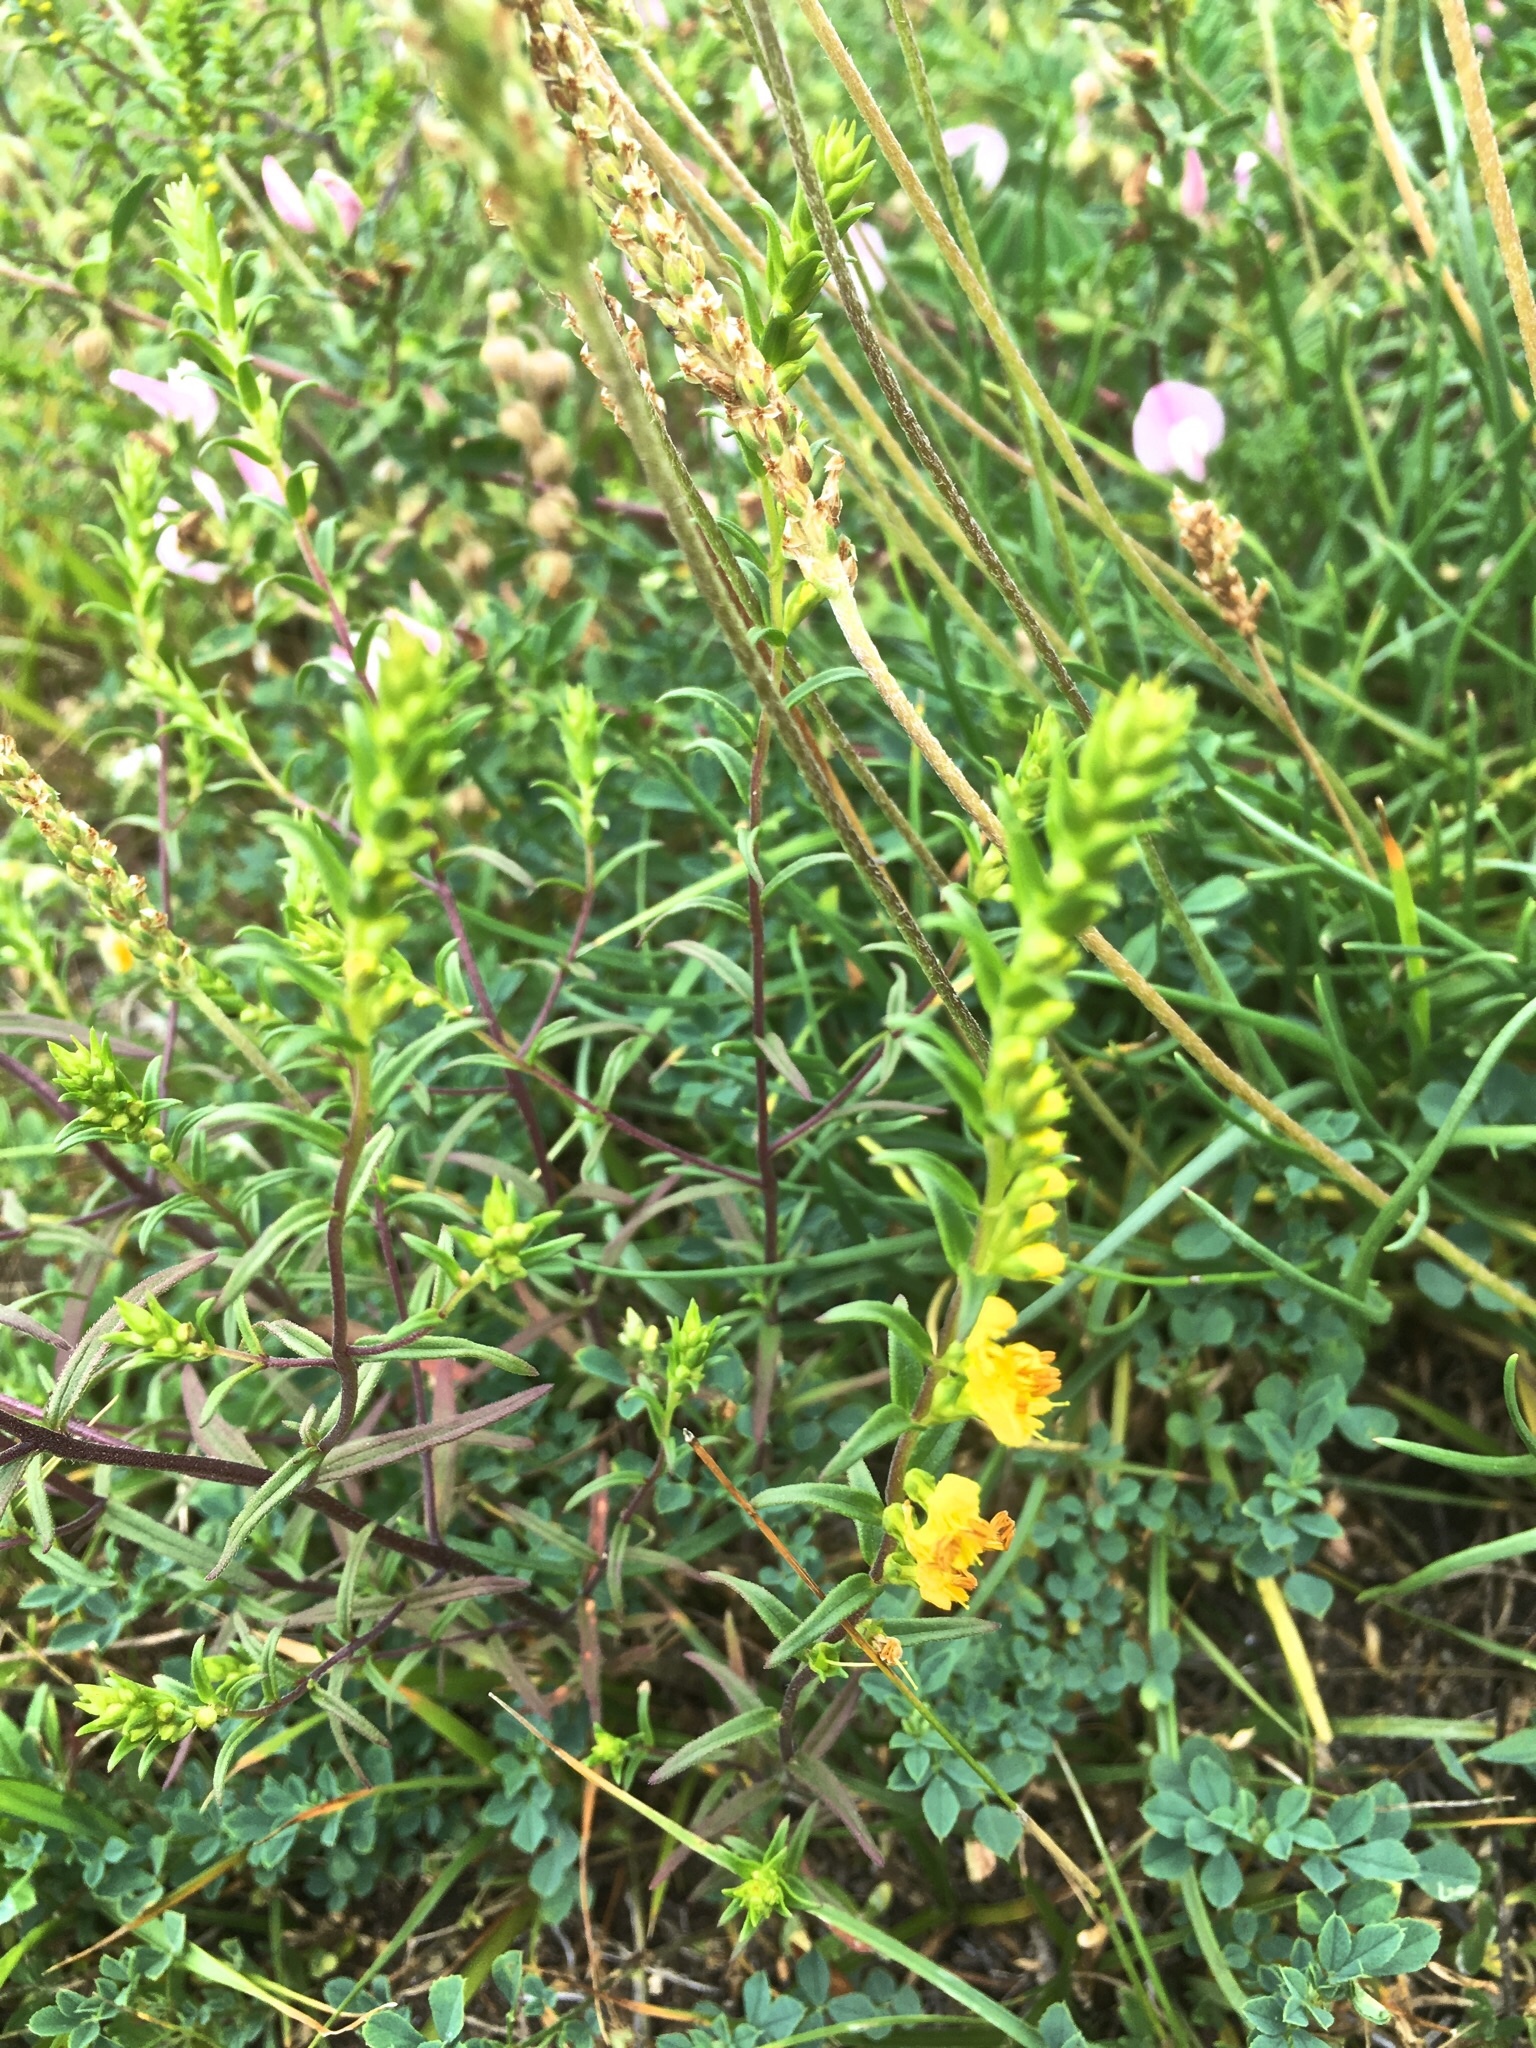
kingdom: Plantae
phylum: Tracheophyta
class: Magnoliopsida
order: Lamiales
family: Orobanchaceae
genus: Odontites
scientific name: Odontites luteus
